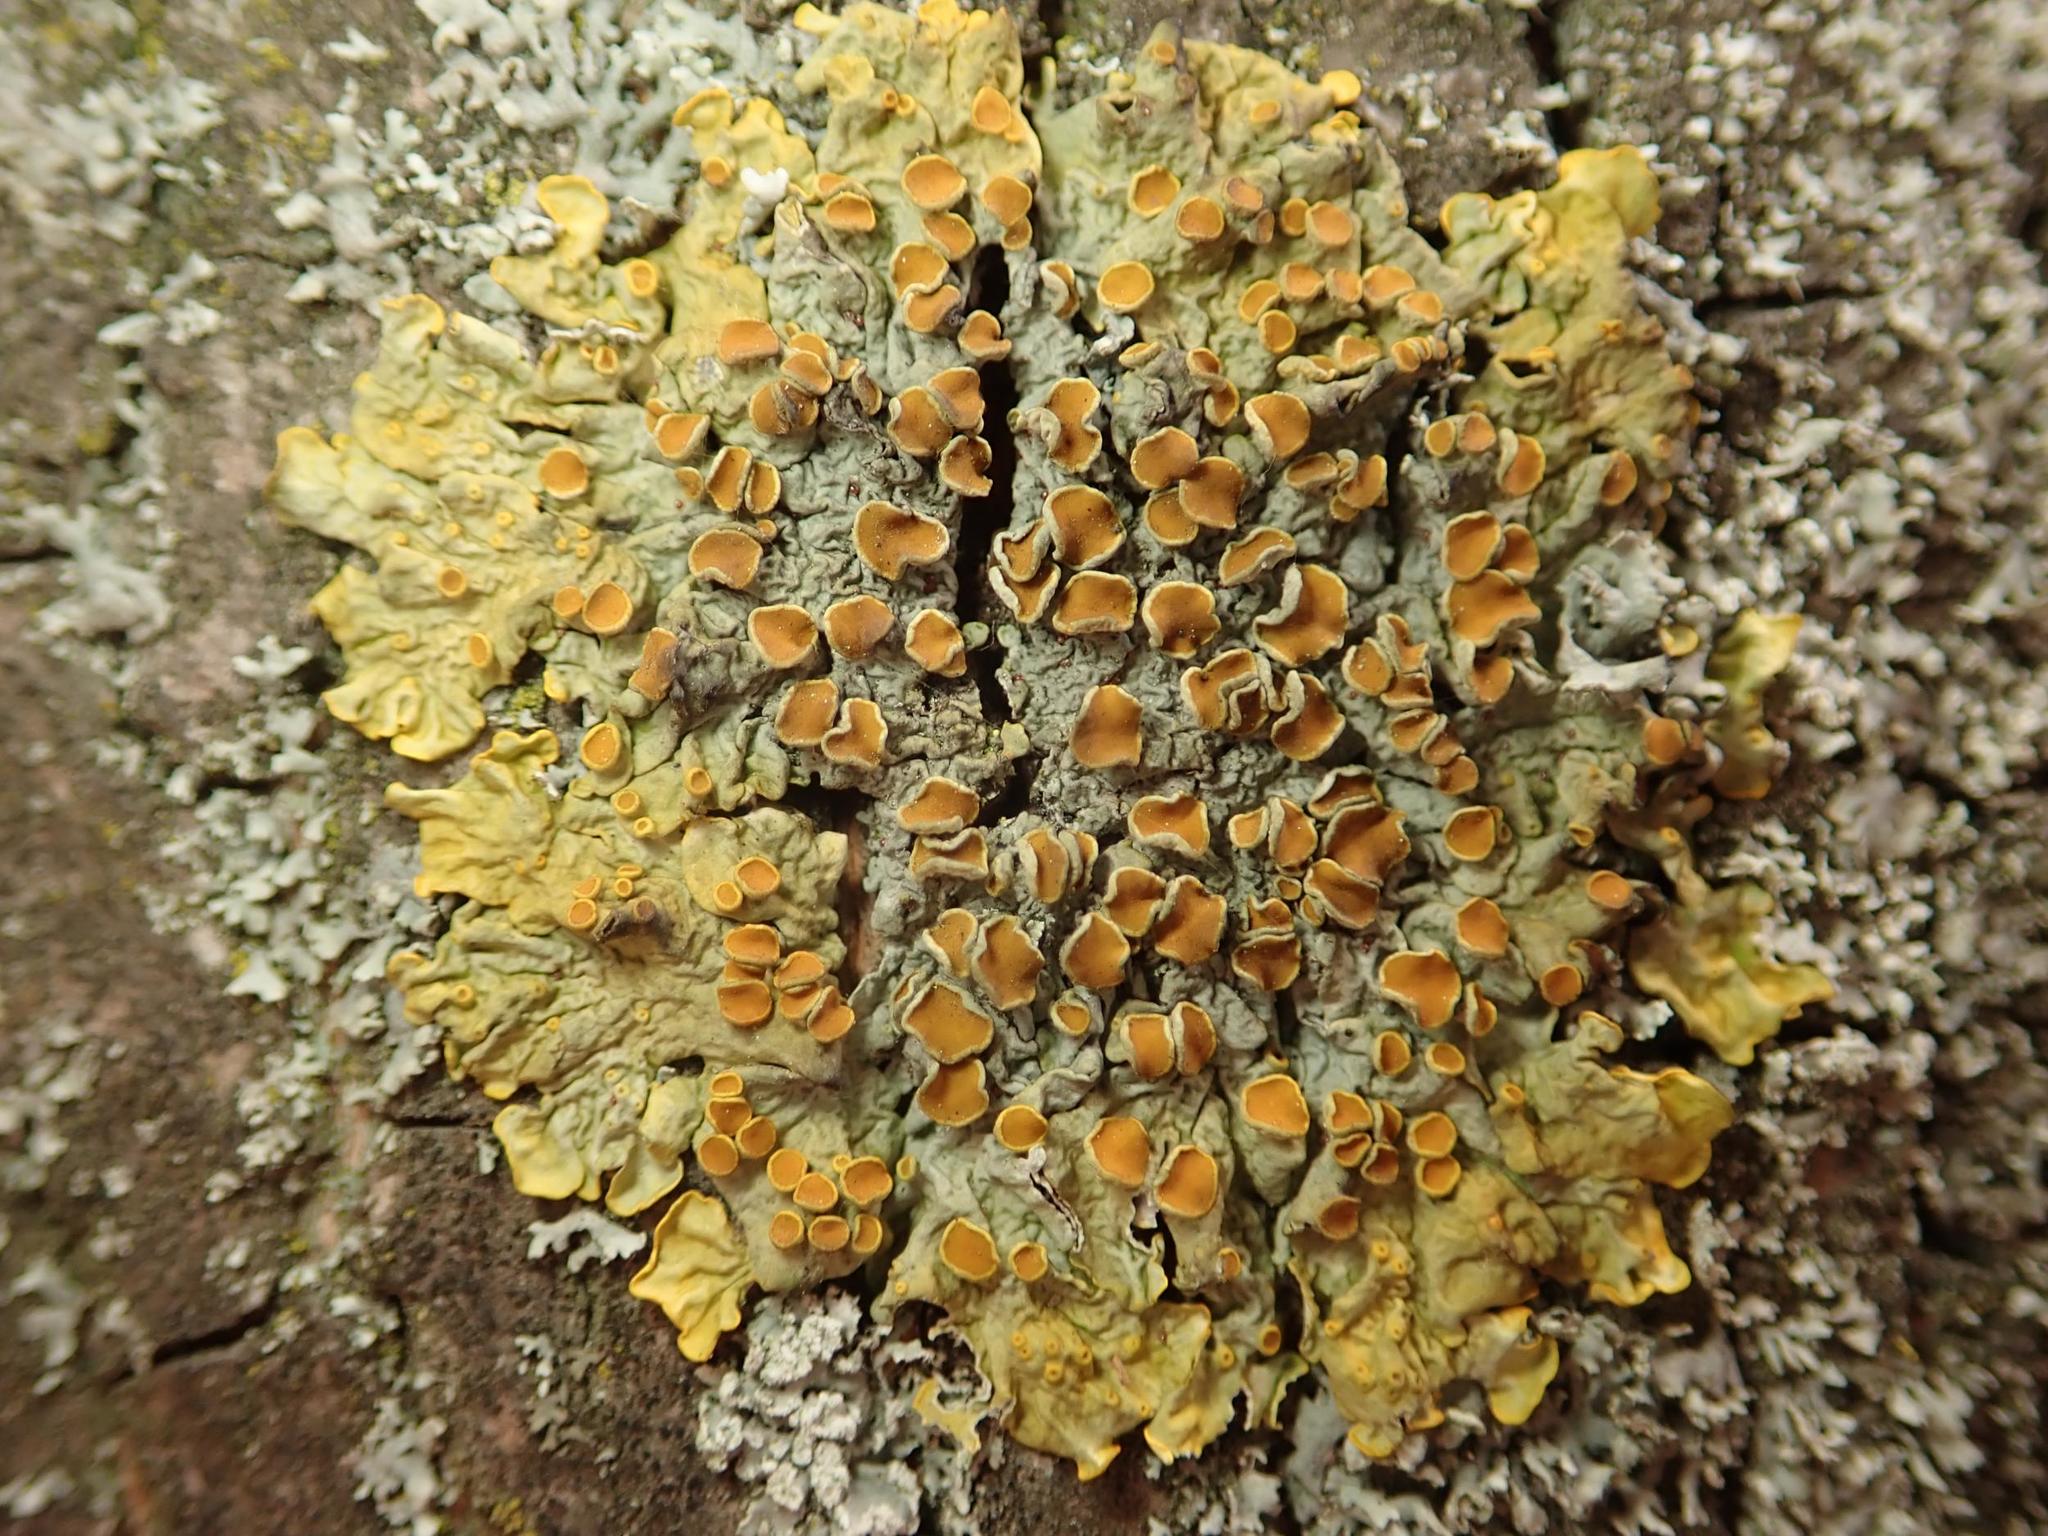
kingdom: Fungi
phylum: Ascomycota
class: Lecanoromycetes
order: Teloschistales
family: Teloschistaceae
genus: Xanthoria
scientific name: Xanthoria parietina
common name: Common orange lichen
